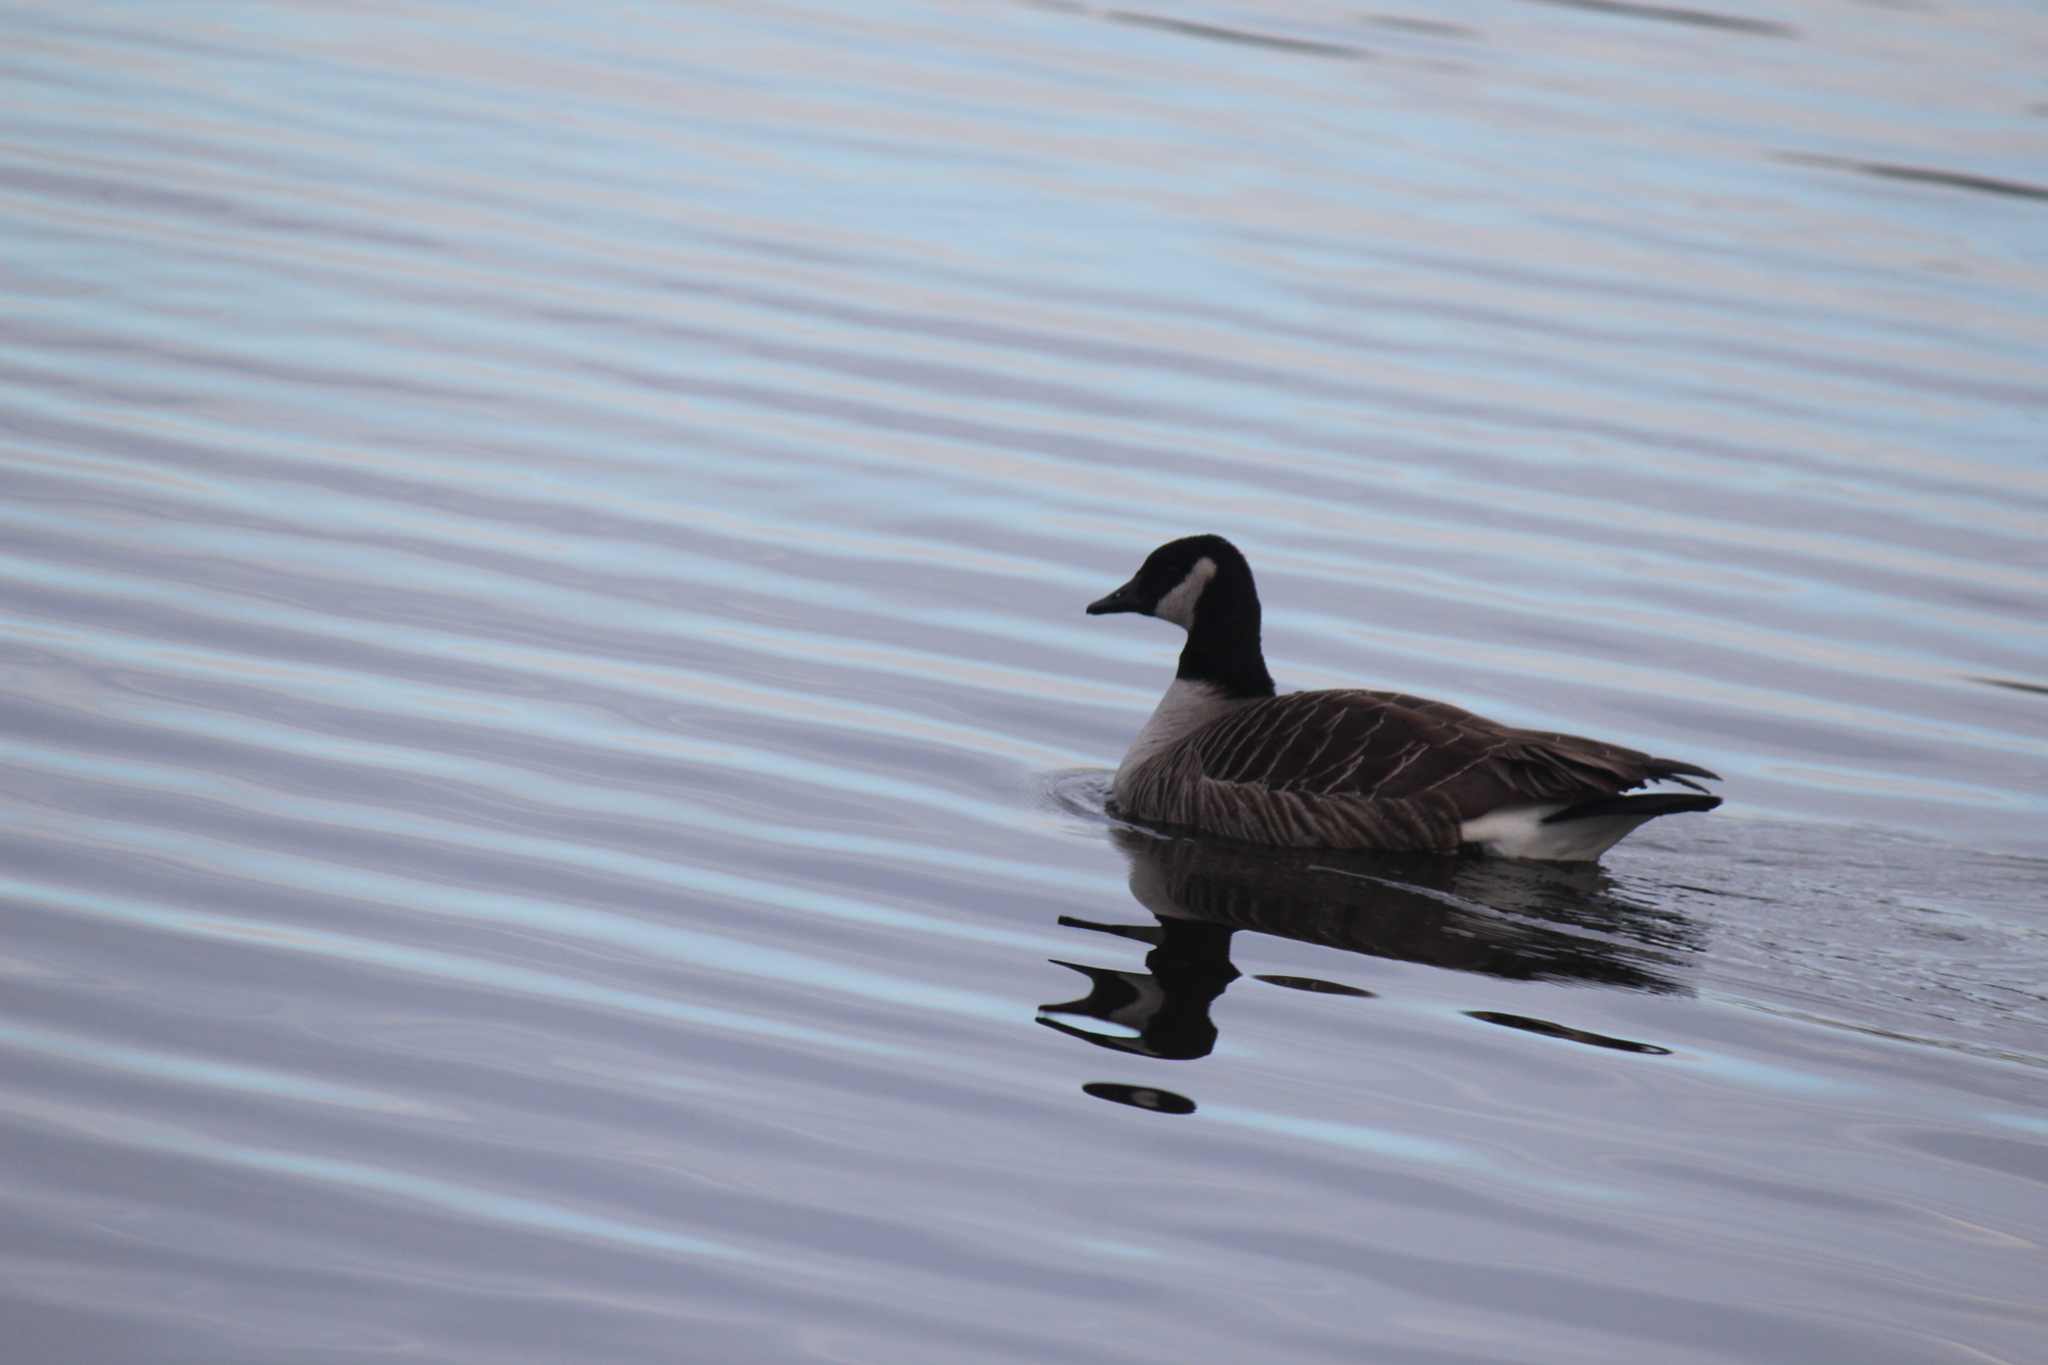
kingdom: Animalia
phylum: Chordata
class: Aves
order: Anseriformes
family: Anatidae
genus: Branta
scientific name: Branta canadensis
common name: Canada goose
